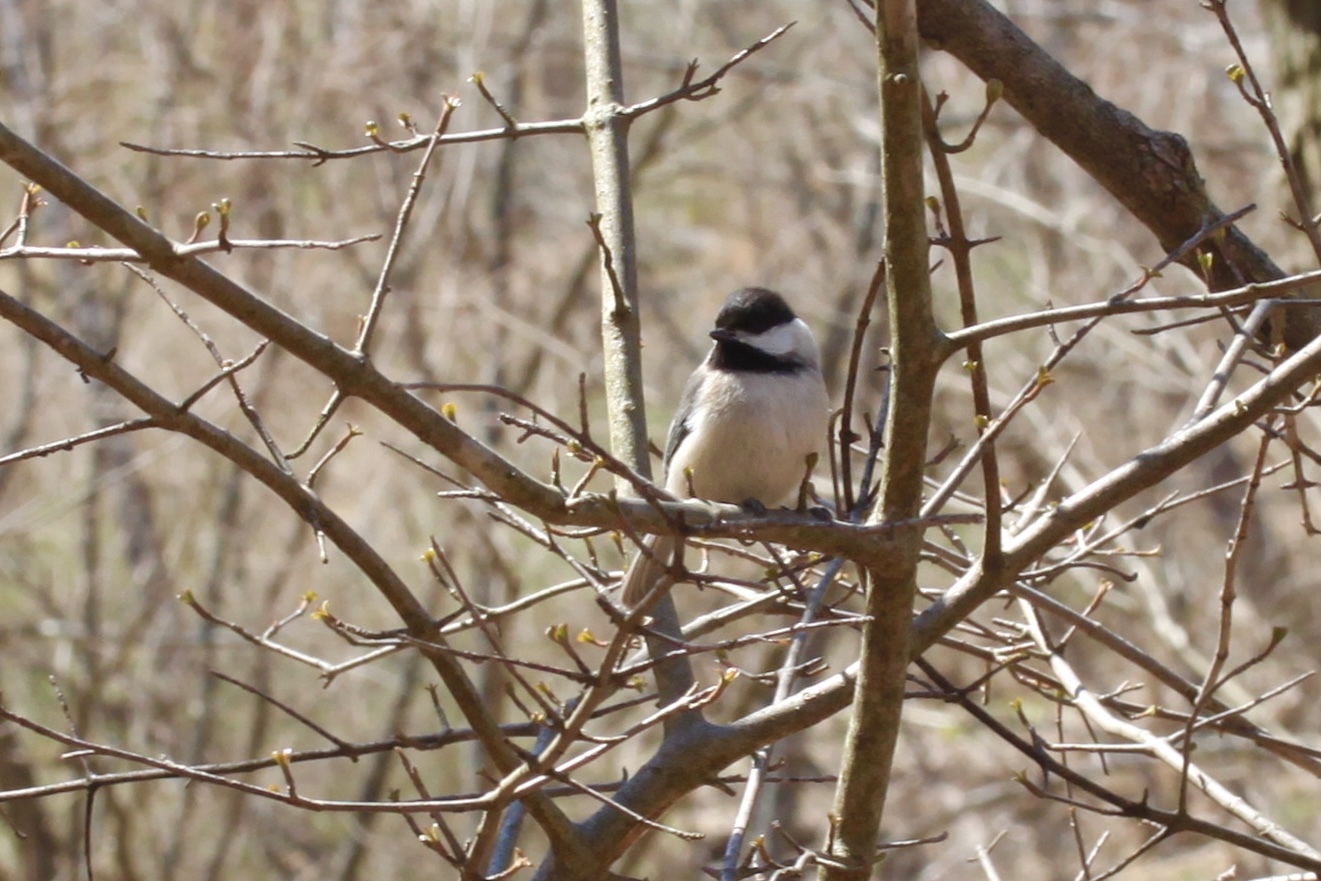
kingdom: Animalia
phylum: Chordata
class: Aves
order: Passeriformes
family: Paridae
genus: Poecile
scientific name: Poecile atricapillus
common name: Black-capped chickadee
